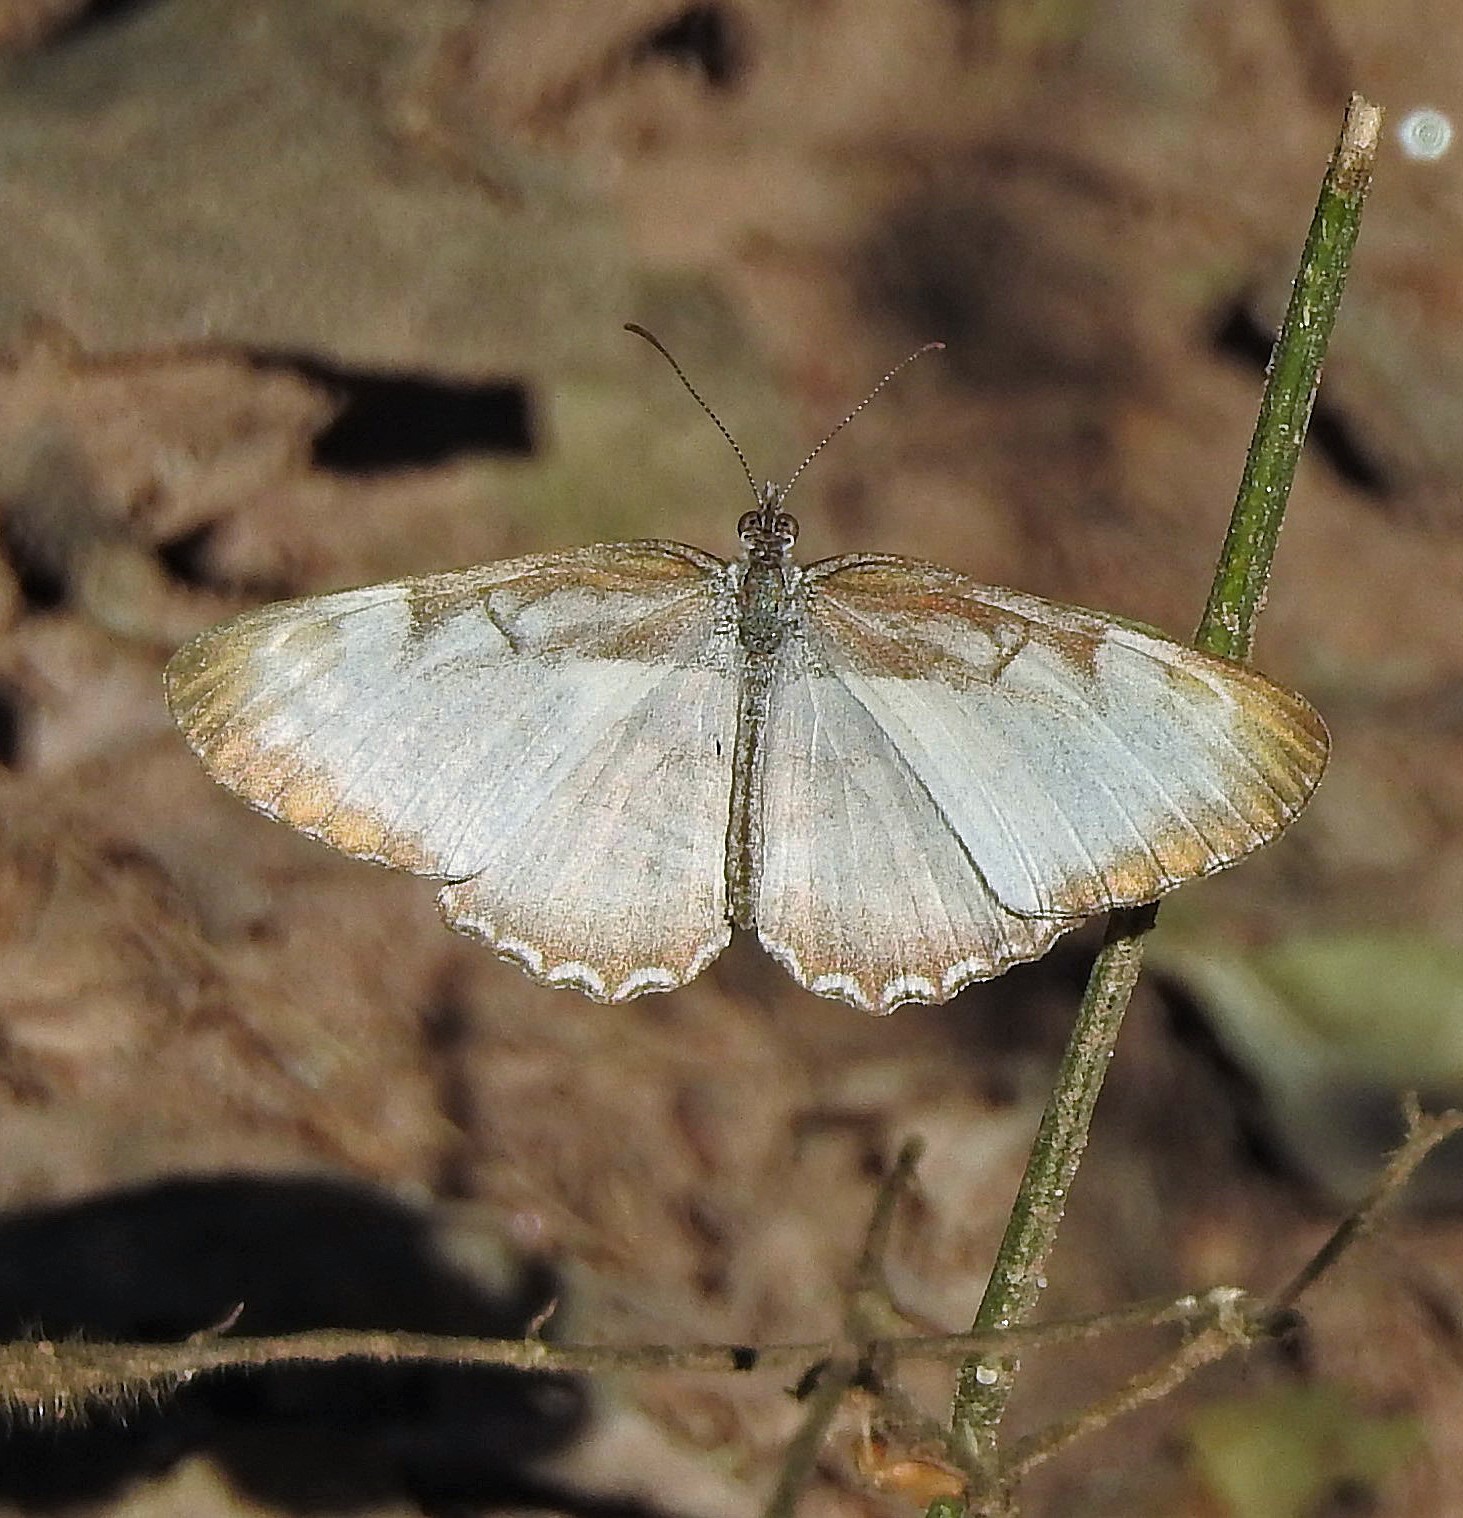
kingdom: Animalia
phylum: Arthropoda
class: Insecta
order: Lepidoptera
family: Nymphalidae
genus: Mestra
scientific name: Mestra hersilia
